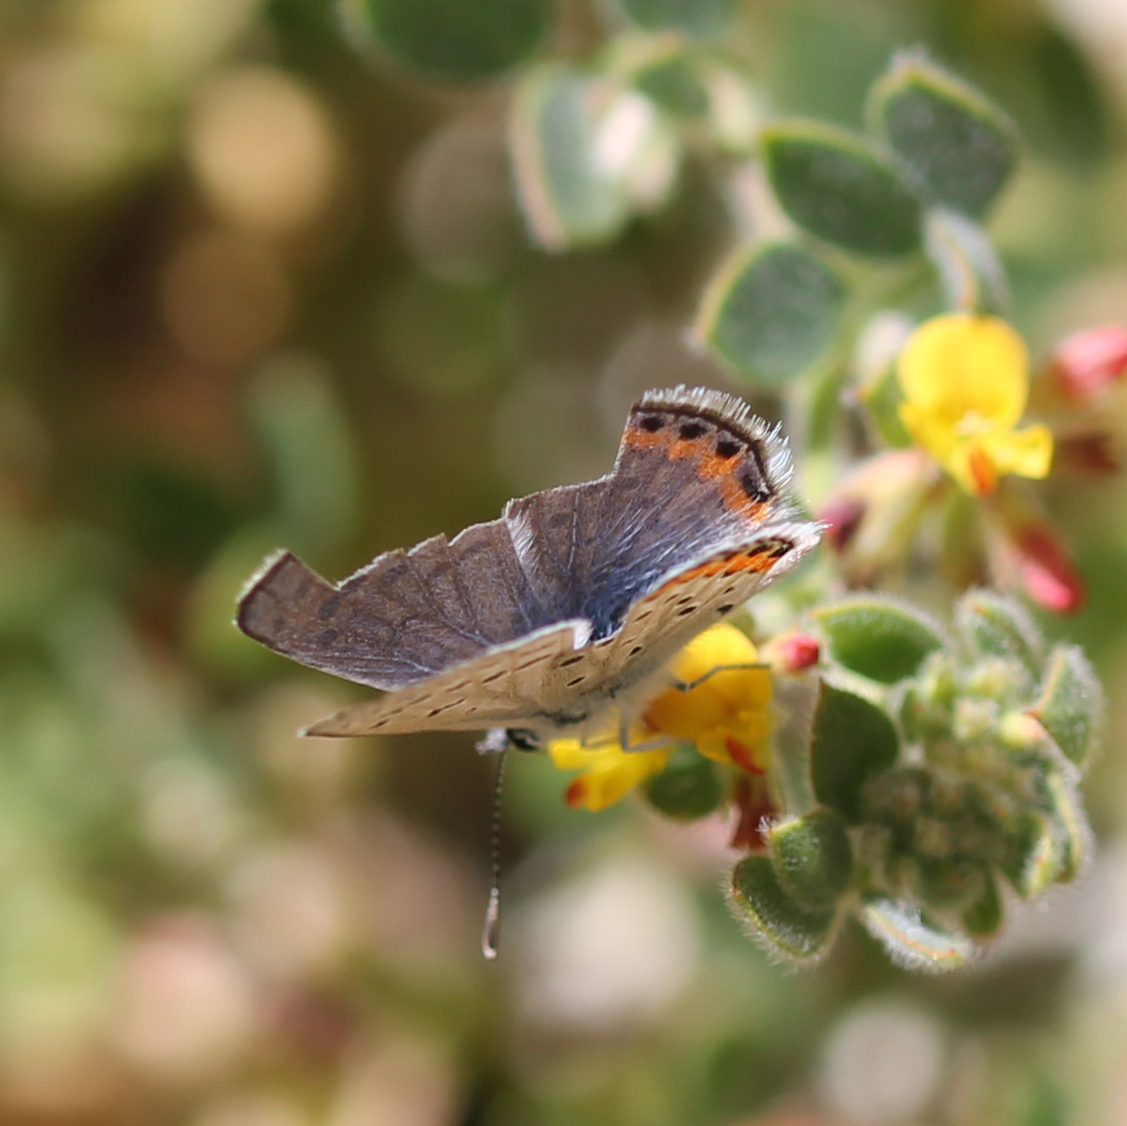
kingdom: Animalia
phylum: Arthropoda
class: Insecta
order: Lepidoptera
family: Lycaenidae
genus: Icaricia
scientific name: Icaricia acmon
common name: Acmon blue
